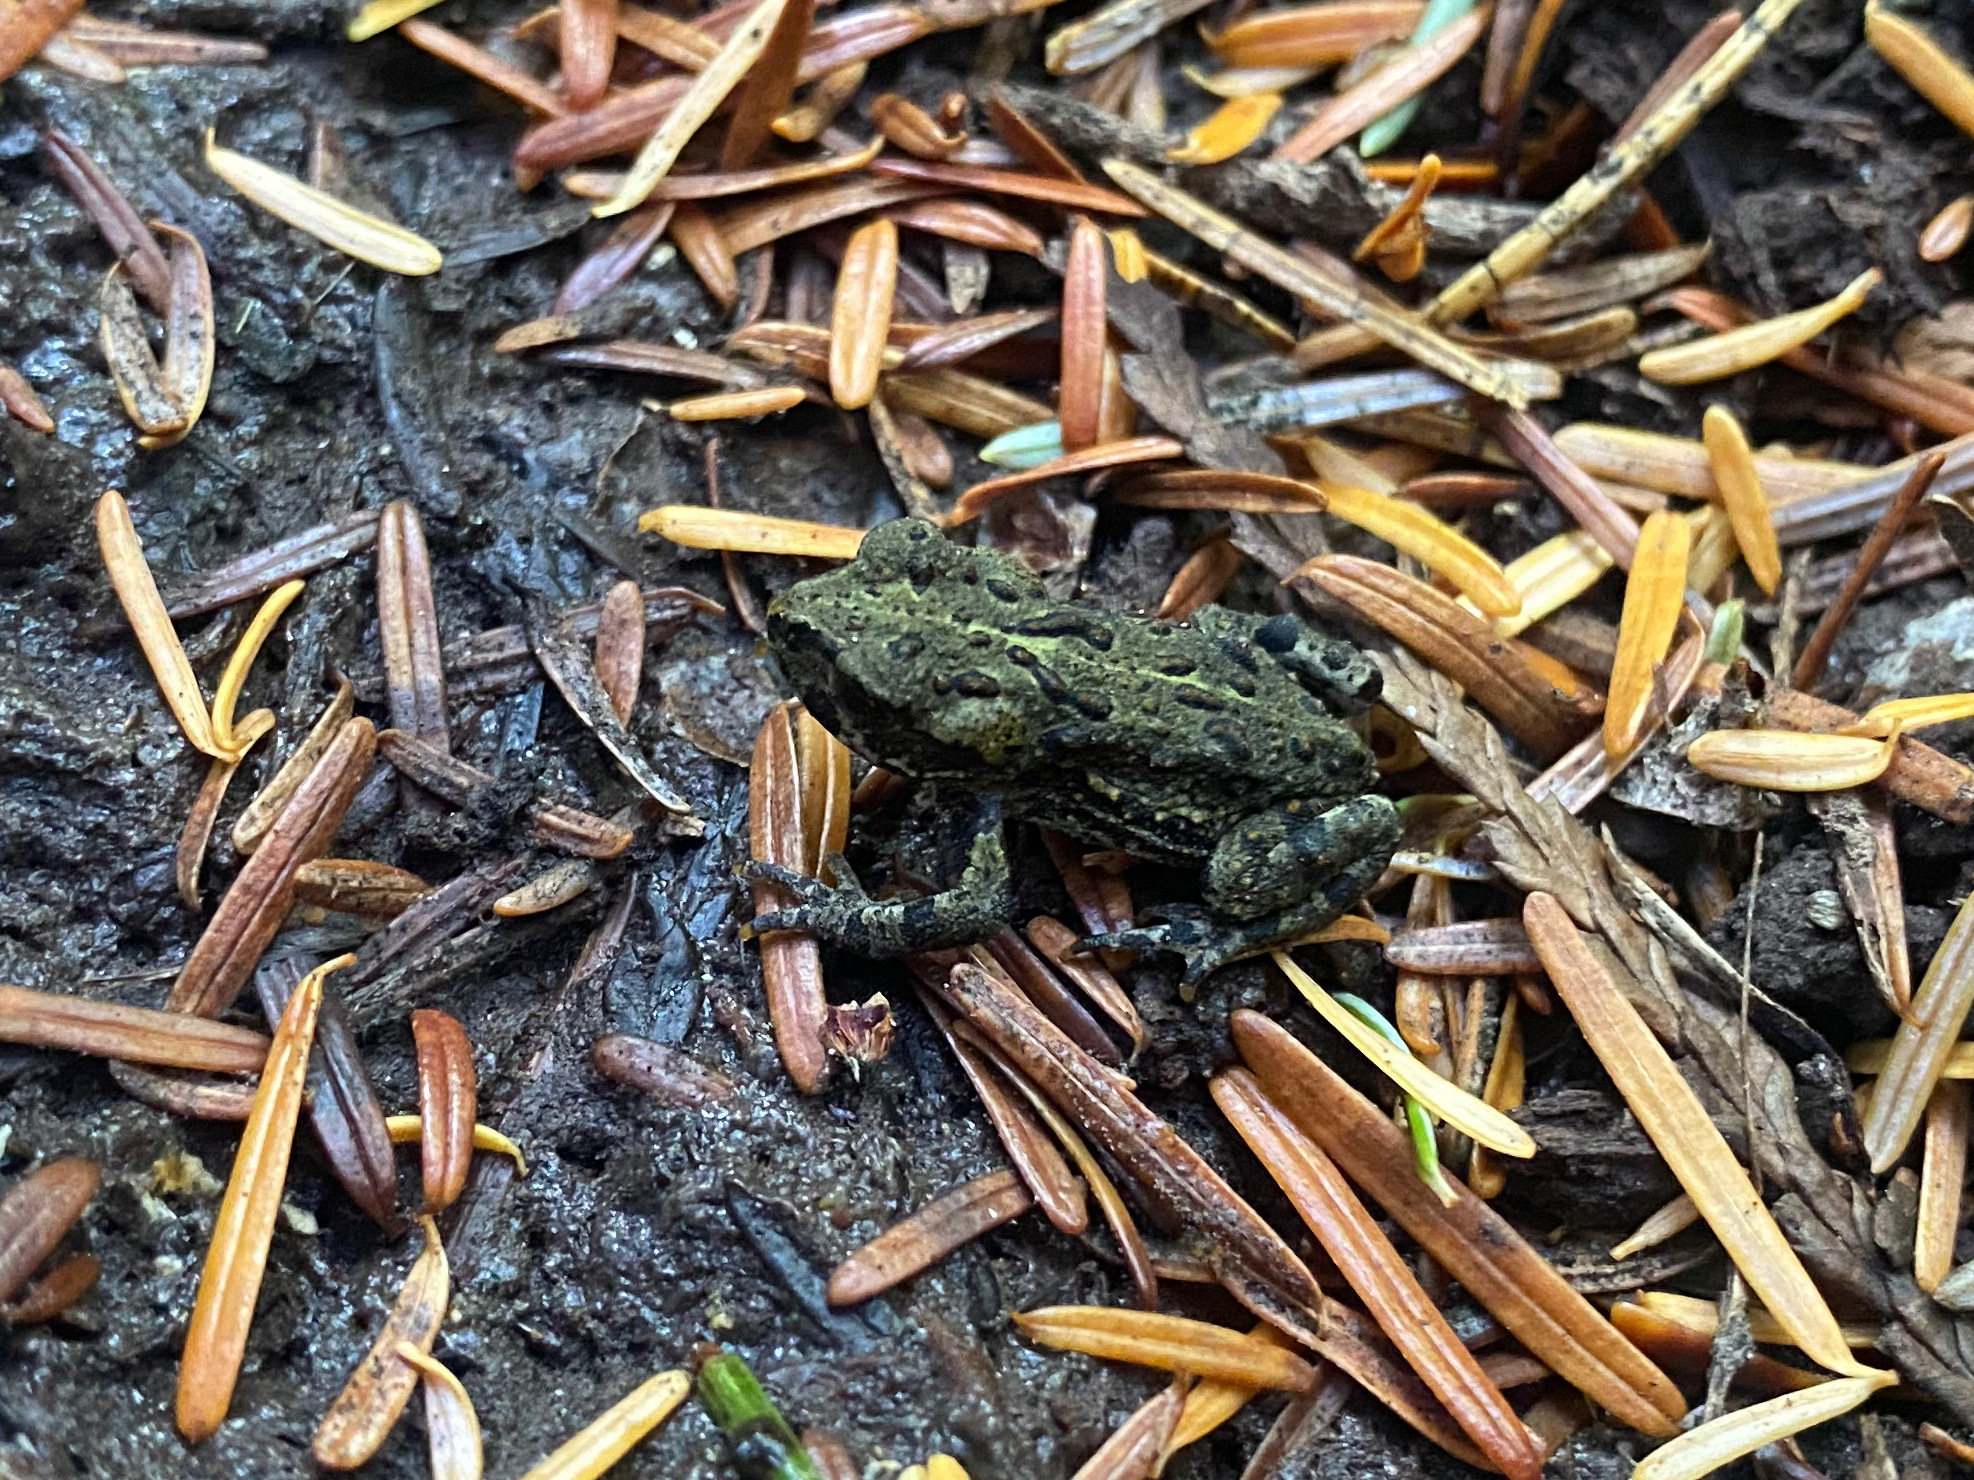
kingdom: Animalia
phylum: Chordata
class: Amphibia
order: Anura
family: Bufonidae
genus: Anaxyrus
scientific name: Anaxyrus boreas
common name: Western toad
